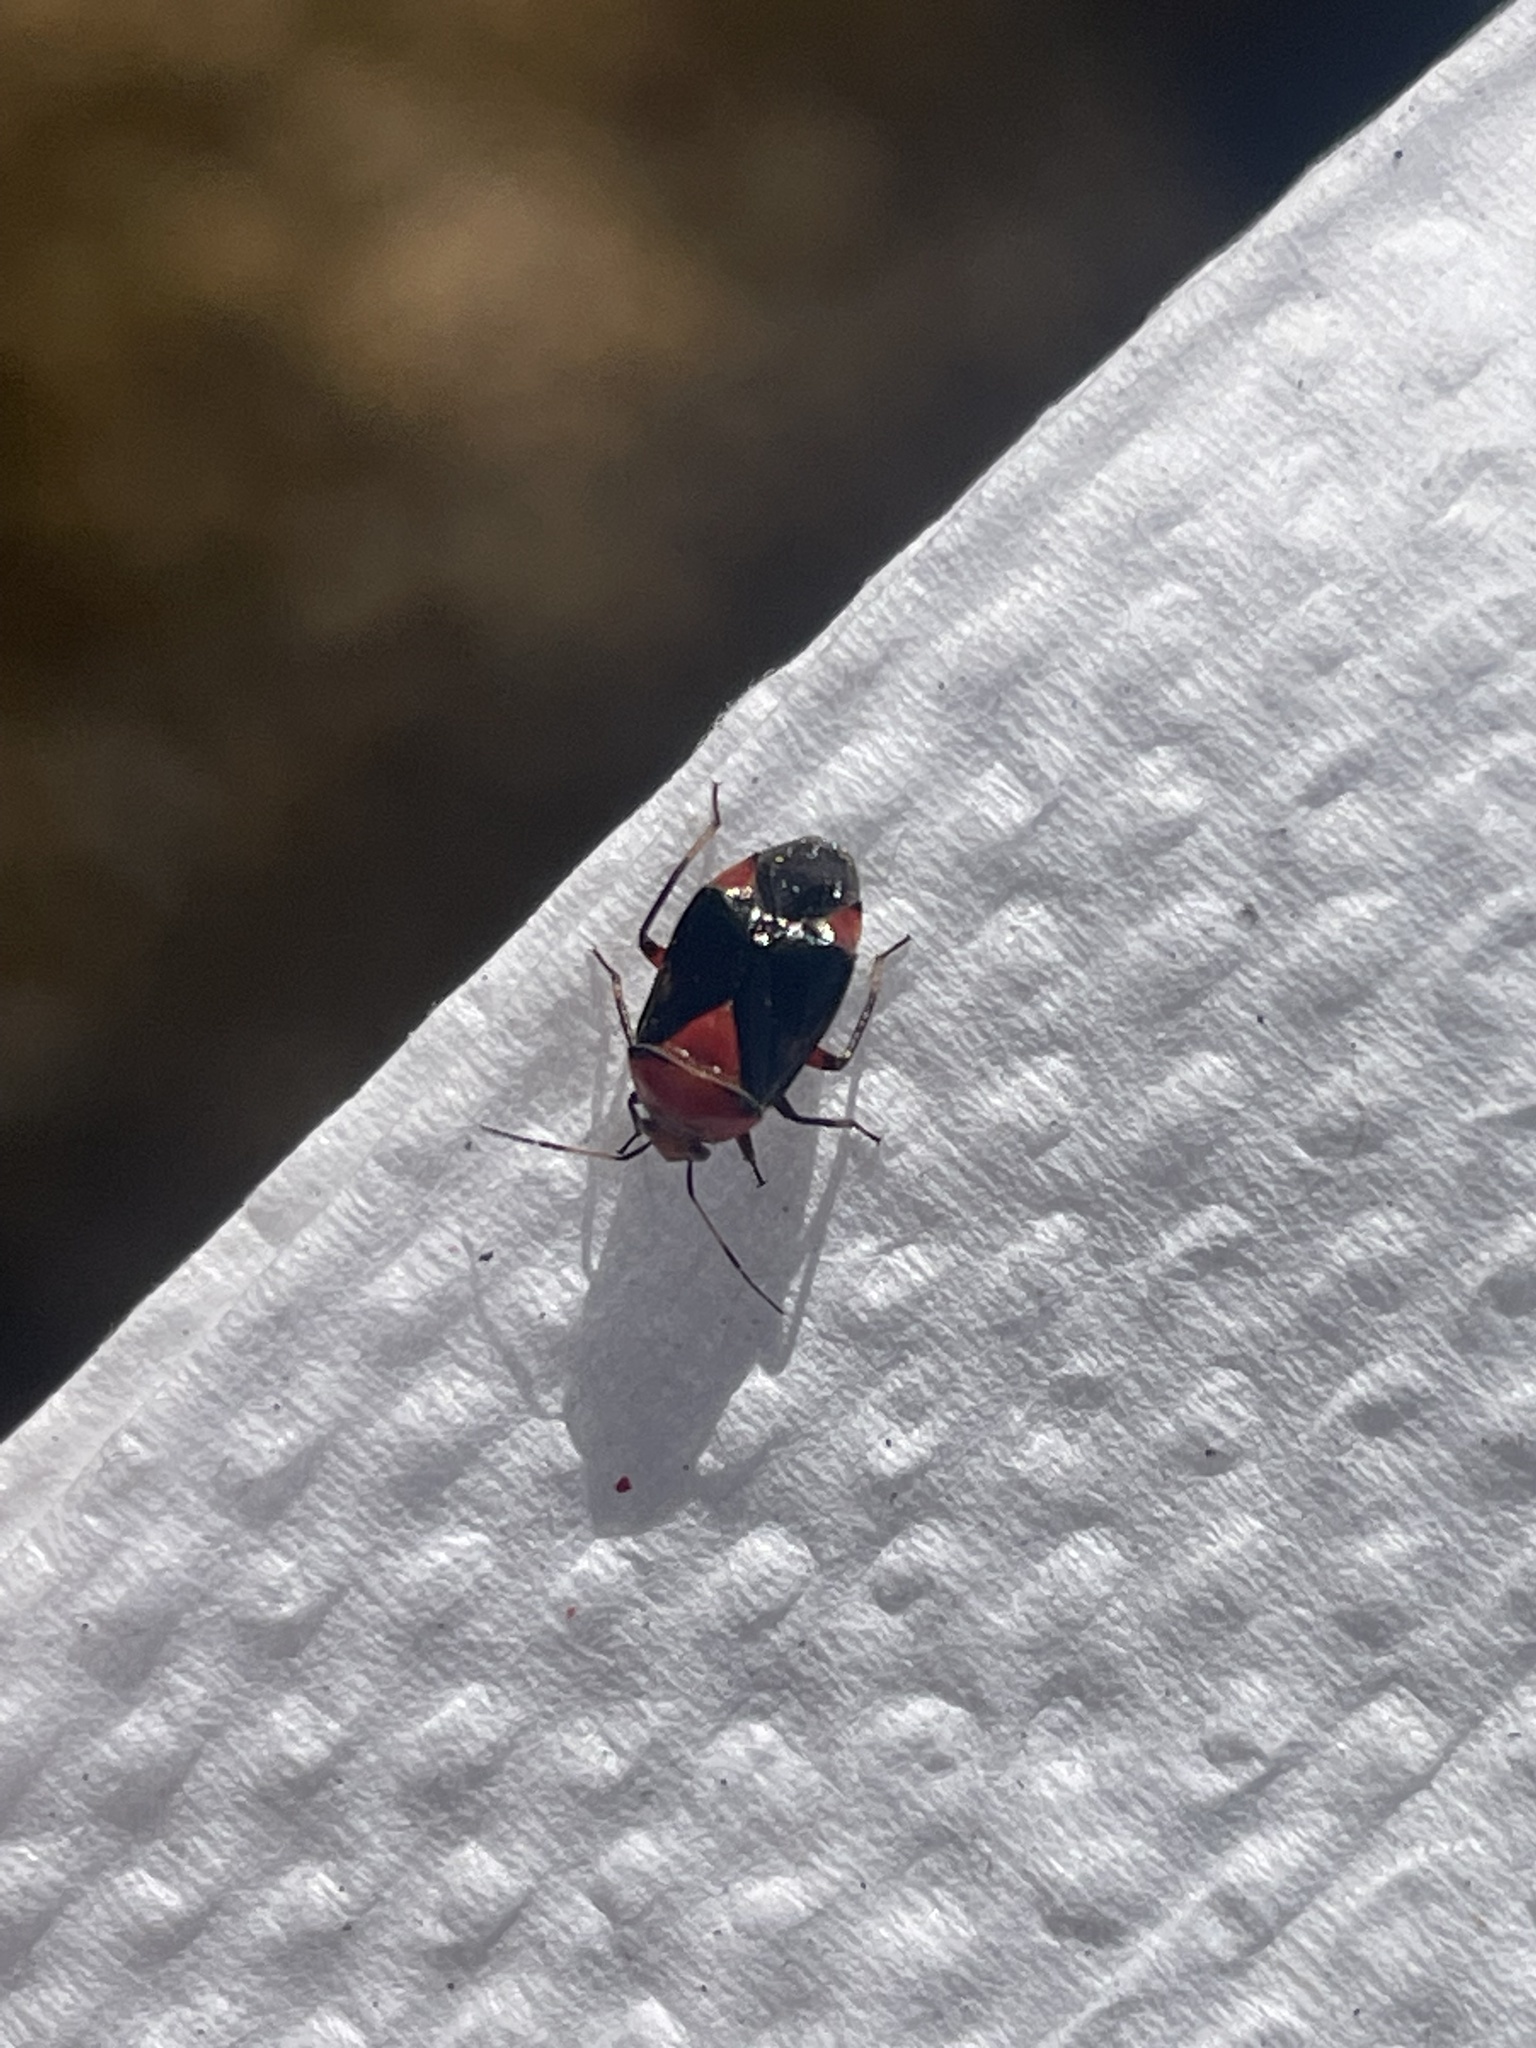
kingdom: Animalia
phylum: Arthropoda
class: Insecta
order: Hemiptera
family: Miridae
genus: Neocapsus
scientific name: Neocapsus cuneatus
